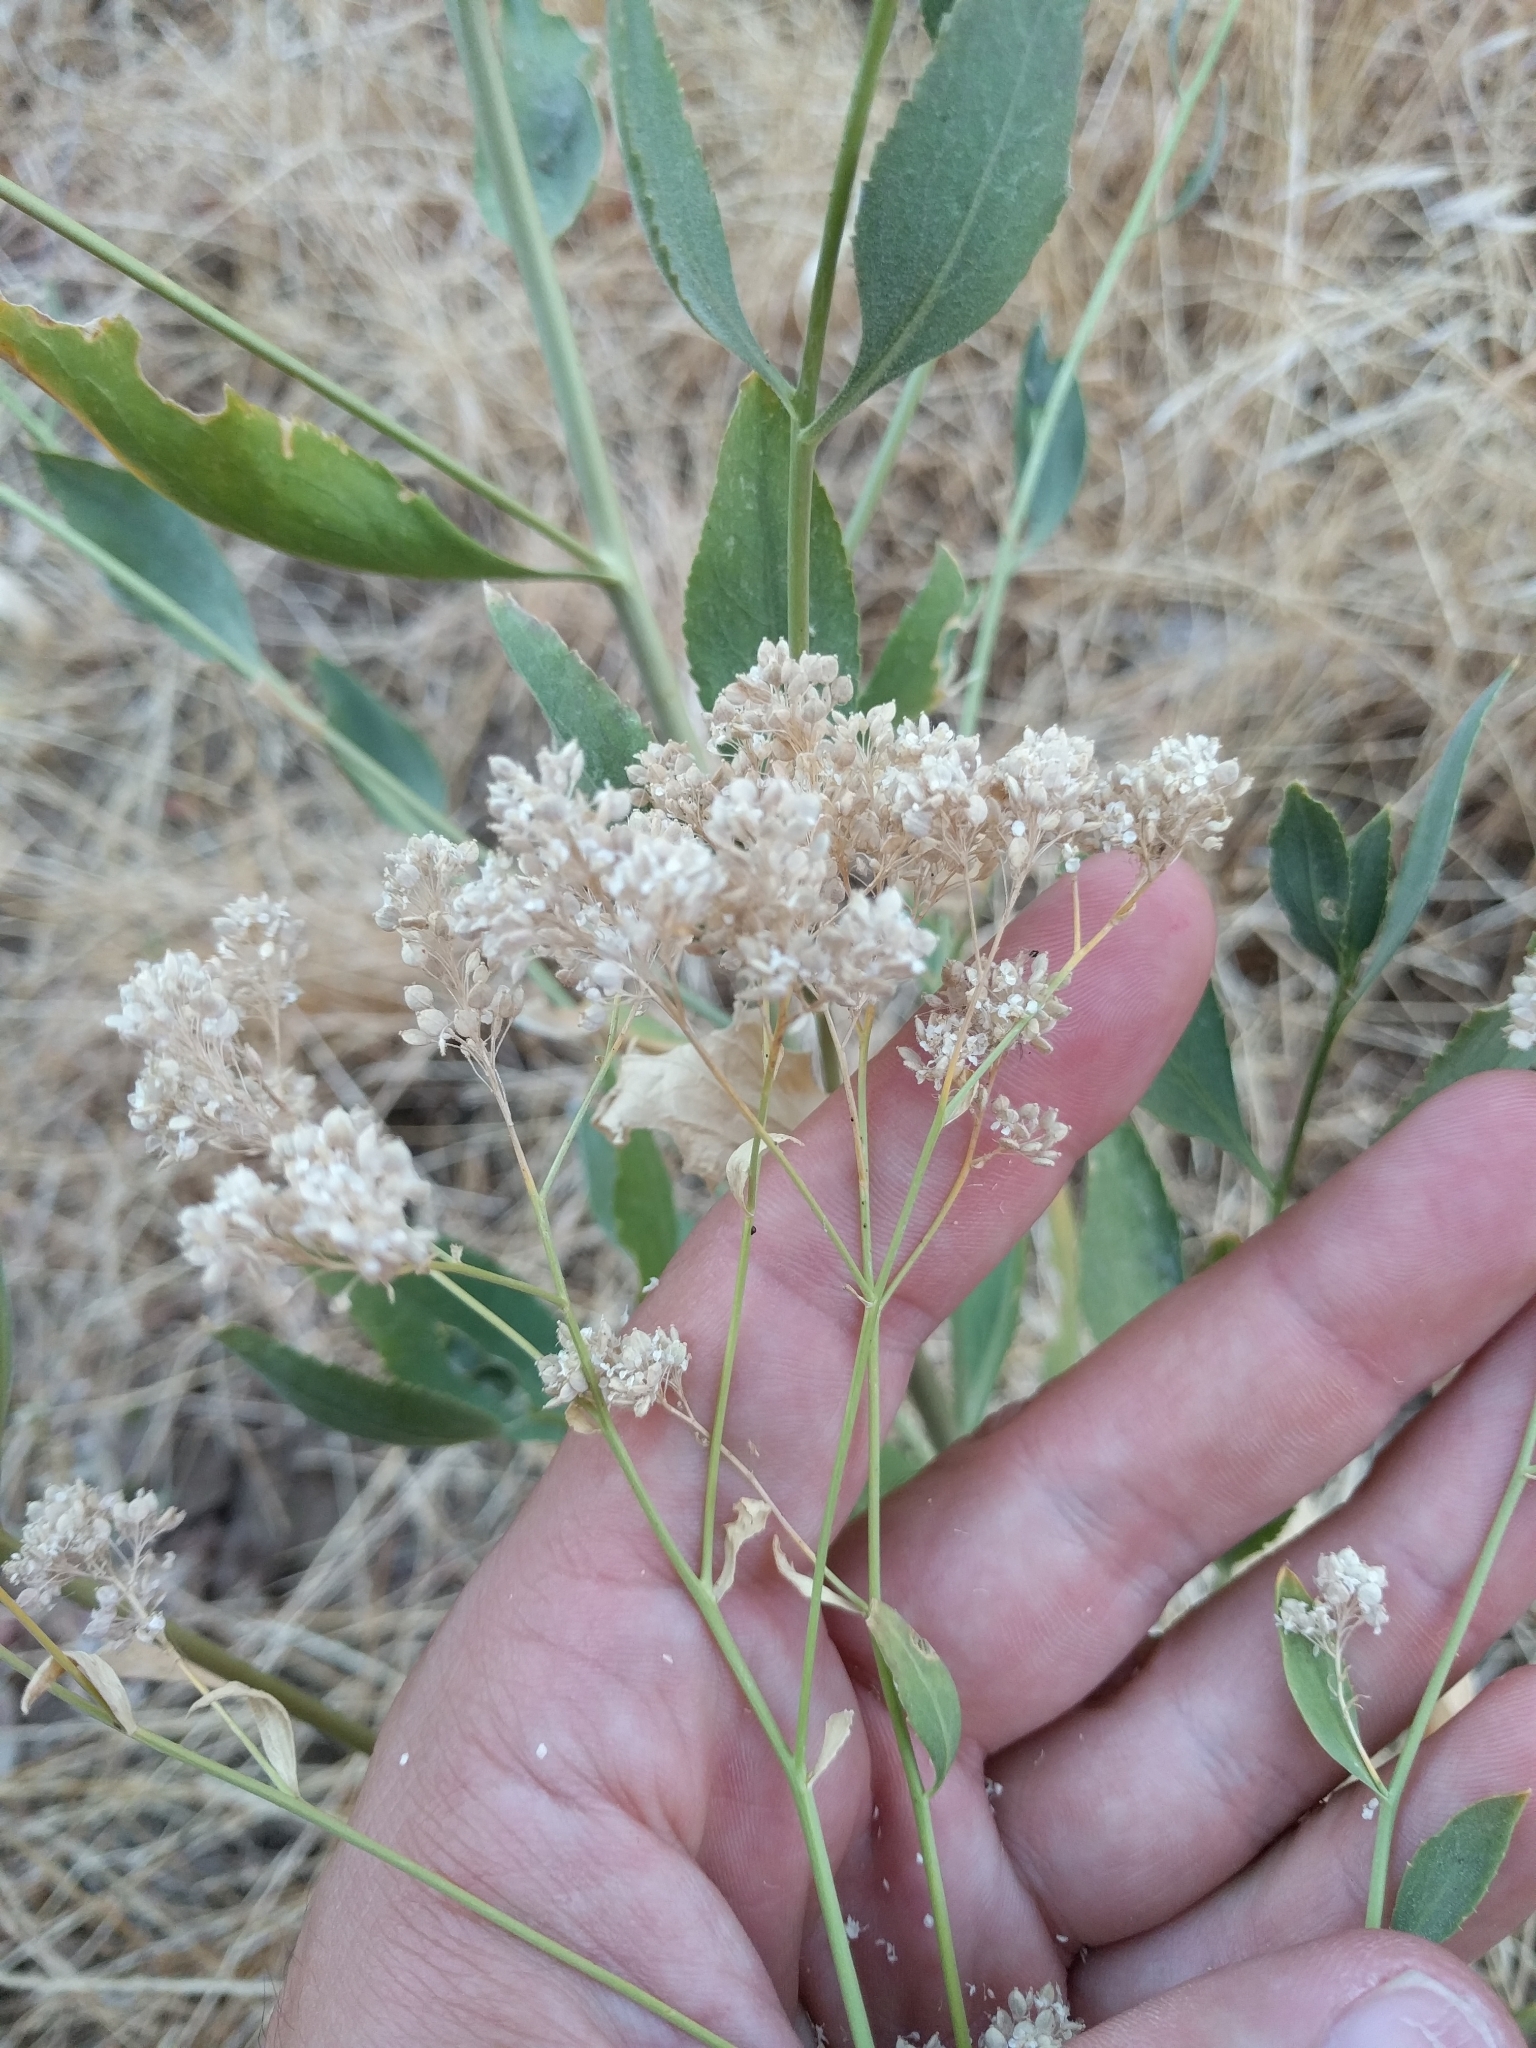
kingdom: Plantae
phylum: Tracheophyta
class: Magnoliopsida
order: Brassicales
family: Brassicaceae
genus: Lepidium
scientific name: Lepidium latifolium
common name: Dittander
